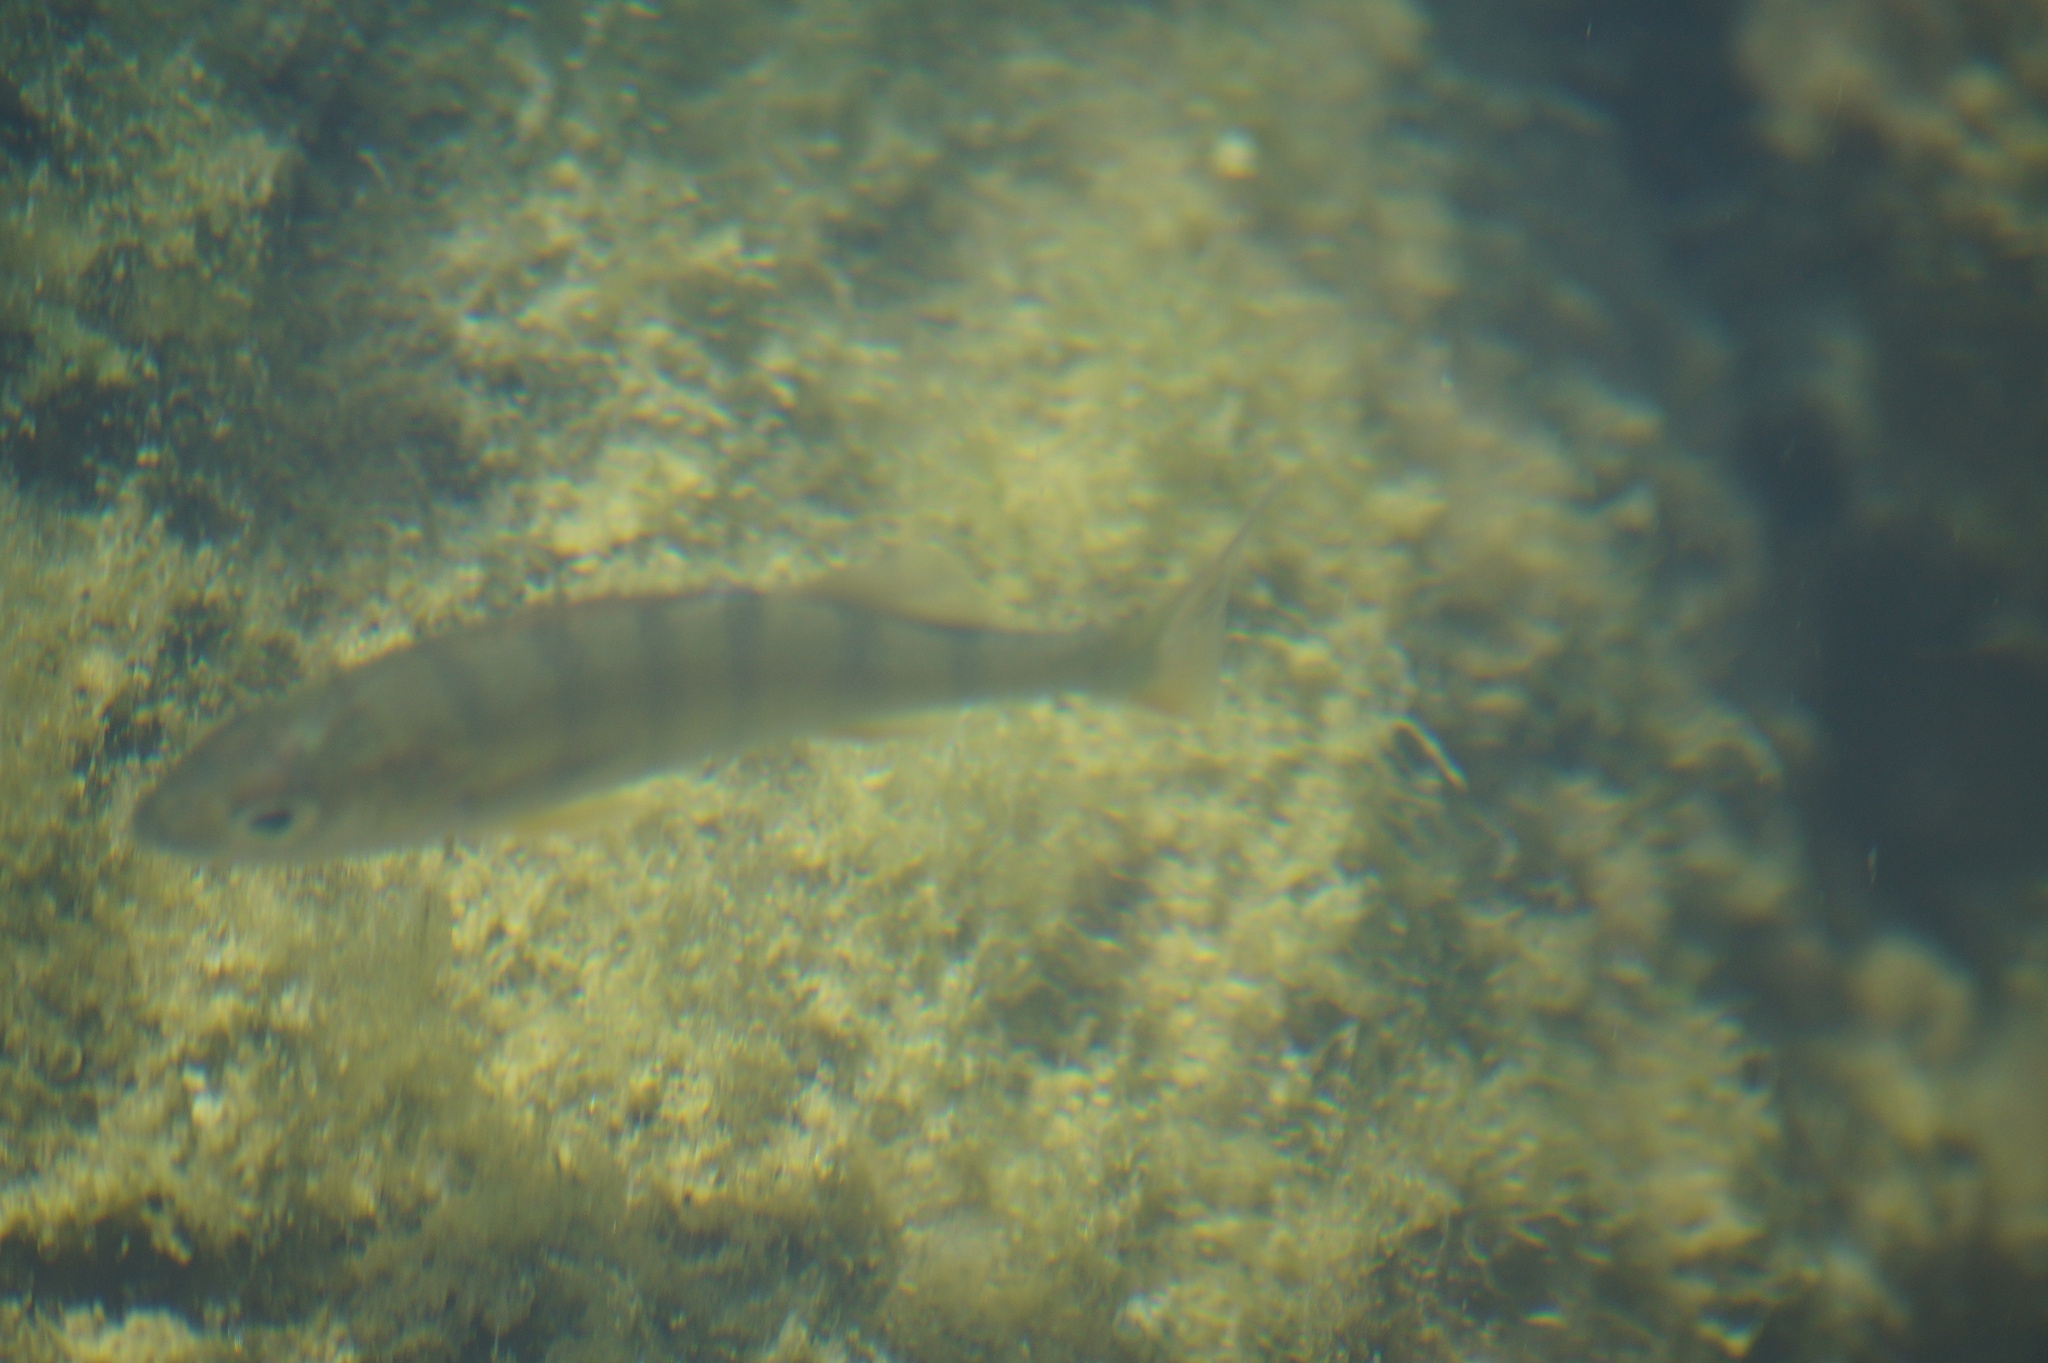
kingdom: Animalia
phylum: Chordata
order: Perciformes
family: Percidae
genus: Perca
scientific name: Perca fluviatilis
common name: Perch
